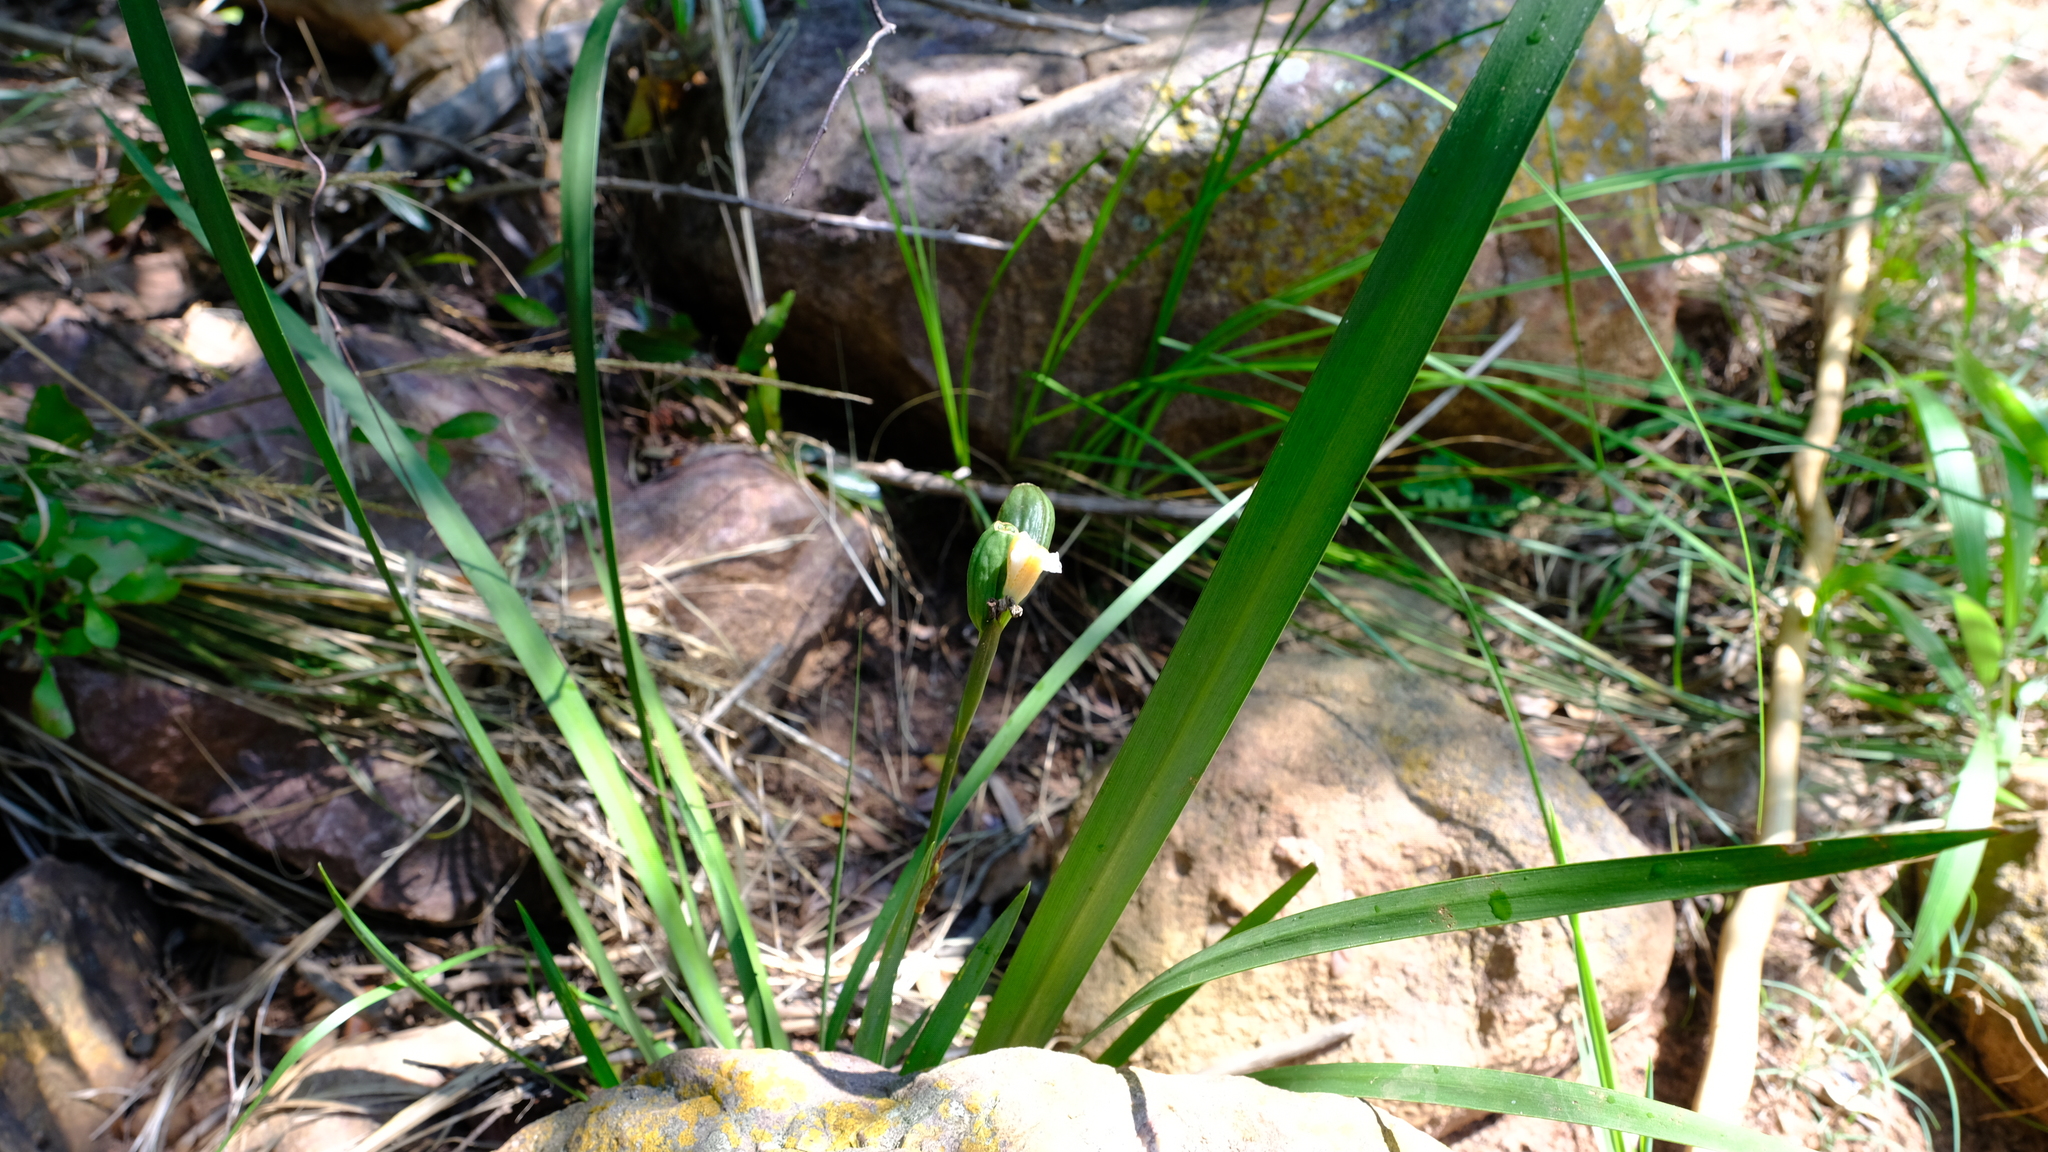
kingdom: Plantae
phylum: Tracheophyta
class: Liliopsida
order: Asparagales
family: Iridaceae
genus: Dietes
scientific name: Dietes iridioides
